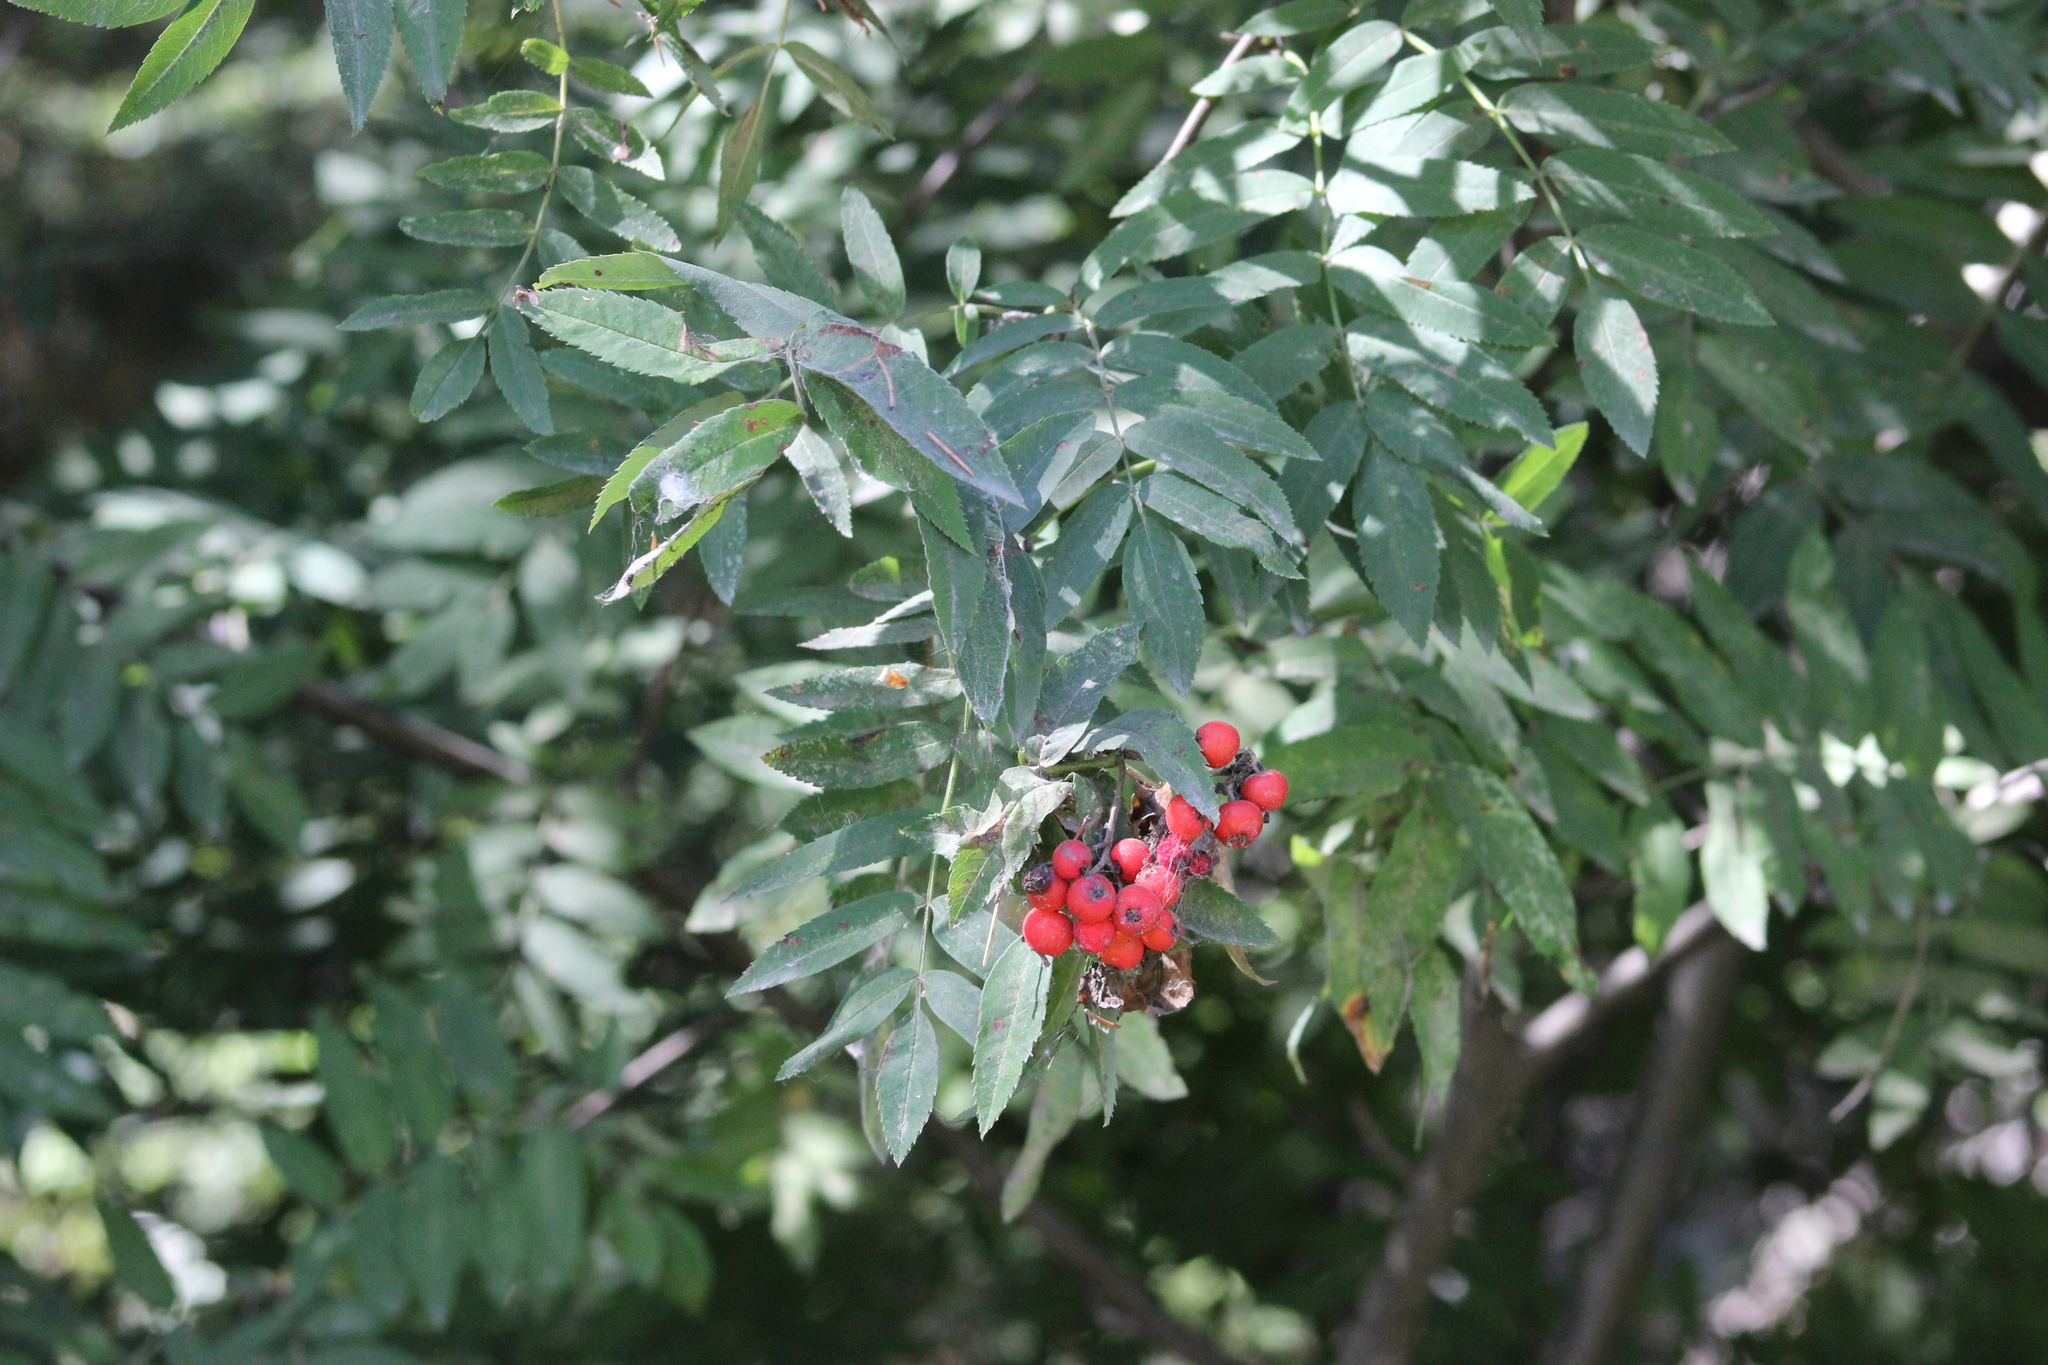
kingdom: Plantae
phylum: Tracheophyta
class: Magnoliopsida
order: Rosales
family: Rosaceae
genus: Sorbus
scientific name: Sorbus aucuparia
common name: Rowan
